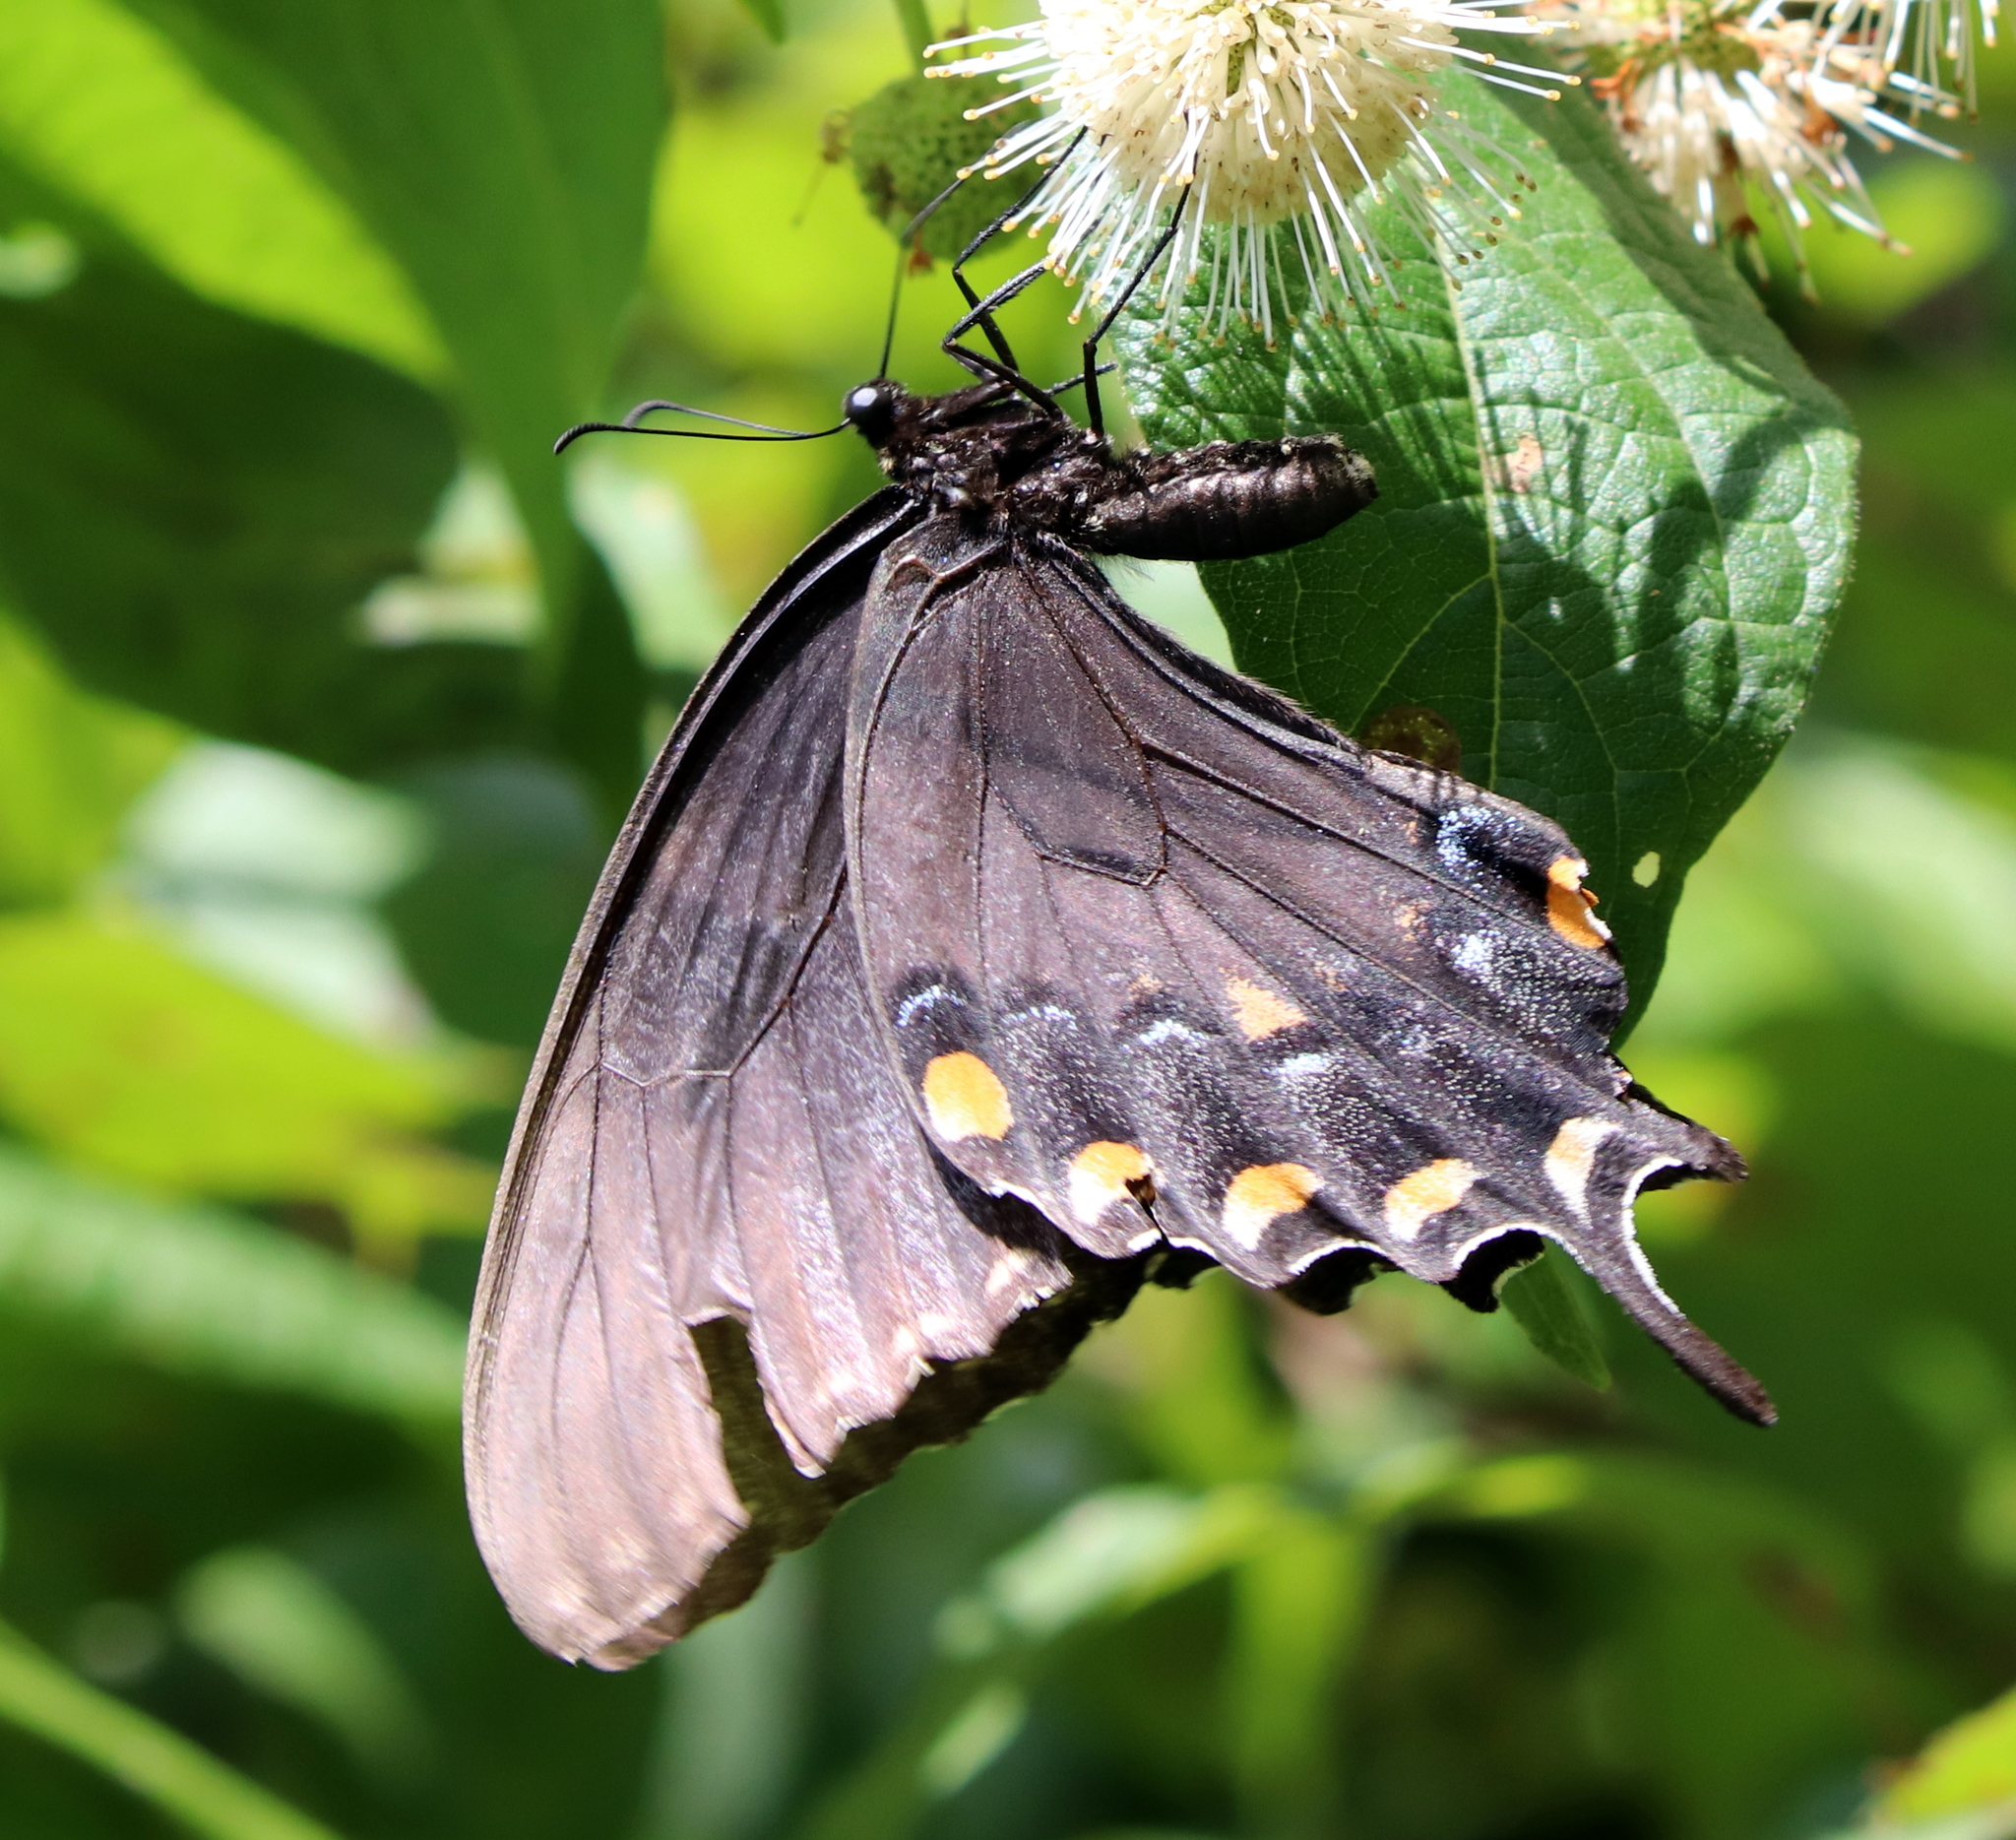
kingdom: Animalia
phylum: Arthropoda
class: Insecta
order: Lepidoptera
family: Papilionidae
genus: Papilio
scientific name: Papilio glaucus
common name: Tiger swallowtail
